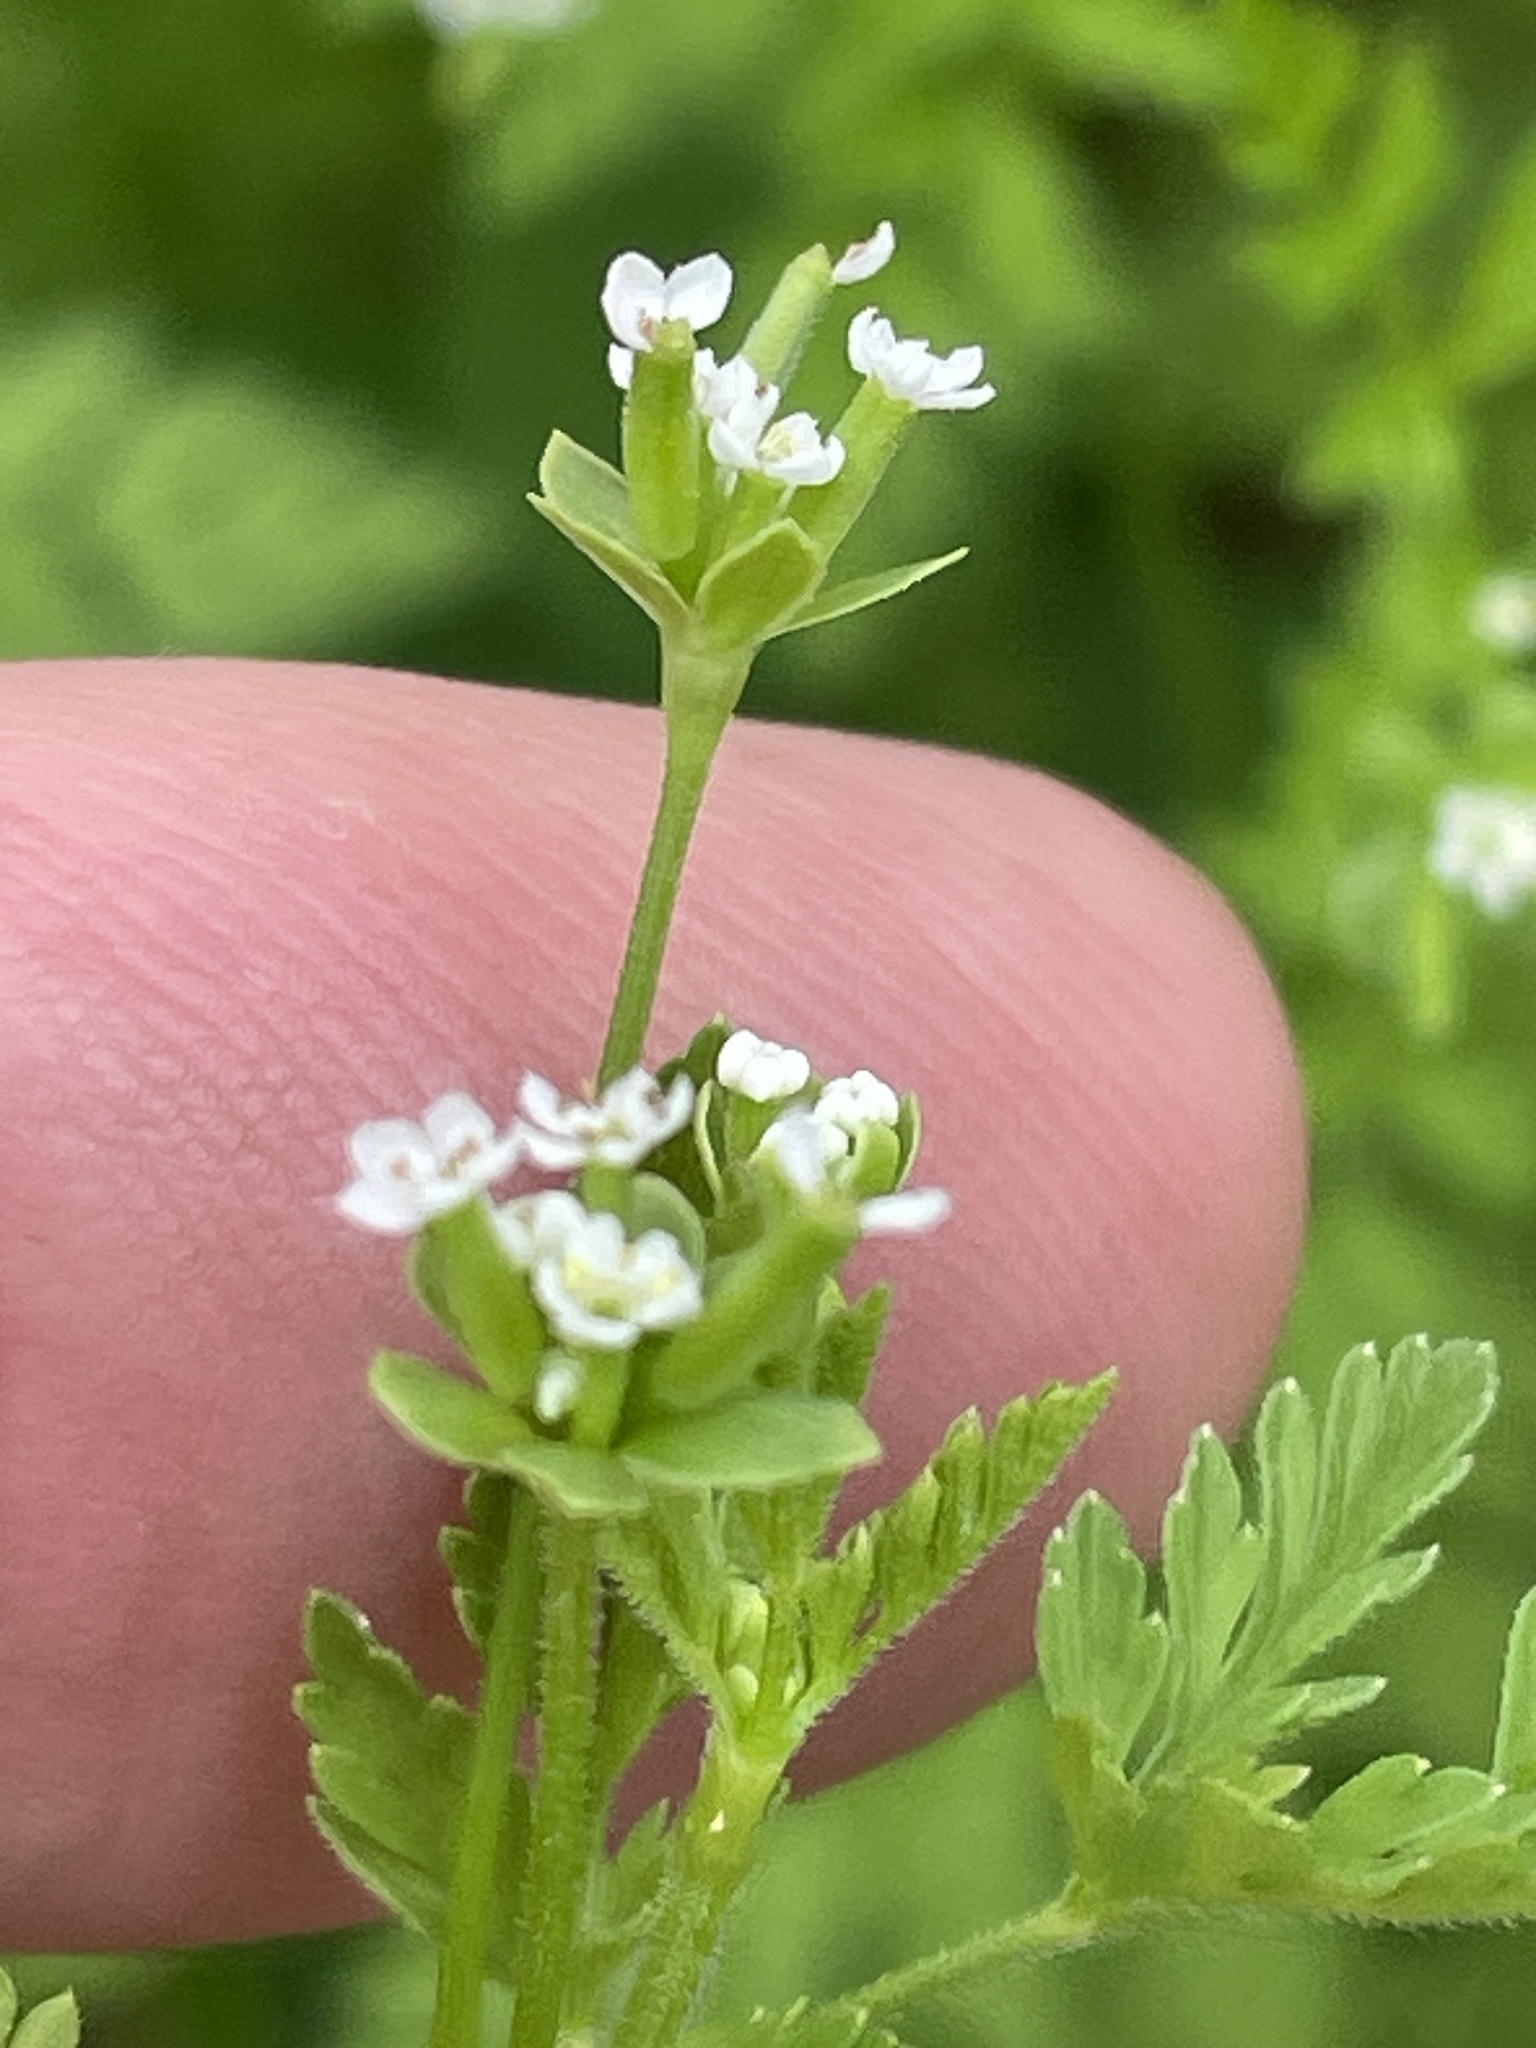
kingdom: Plantae
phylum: Tracheophyta
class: Magnoliopsida
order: Apiales
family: Apiaceae
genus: Chaerophyllum
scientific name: Chaerophyllum tainturieri
